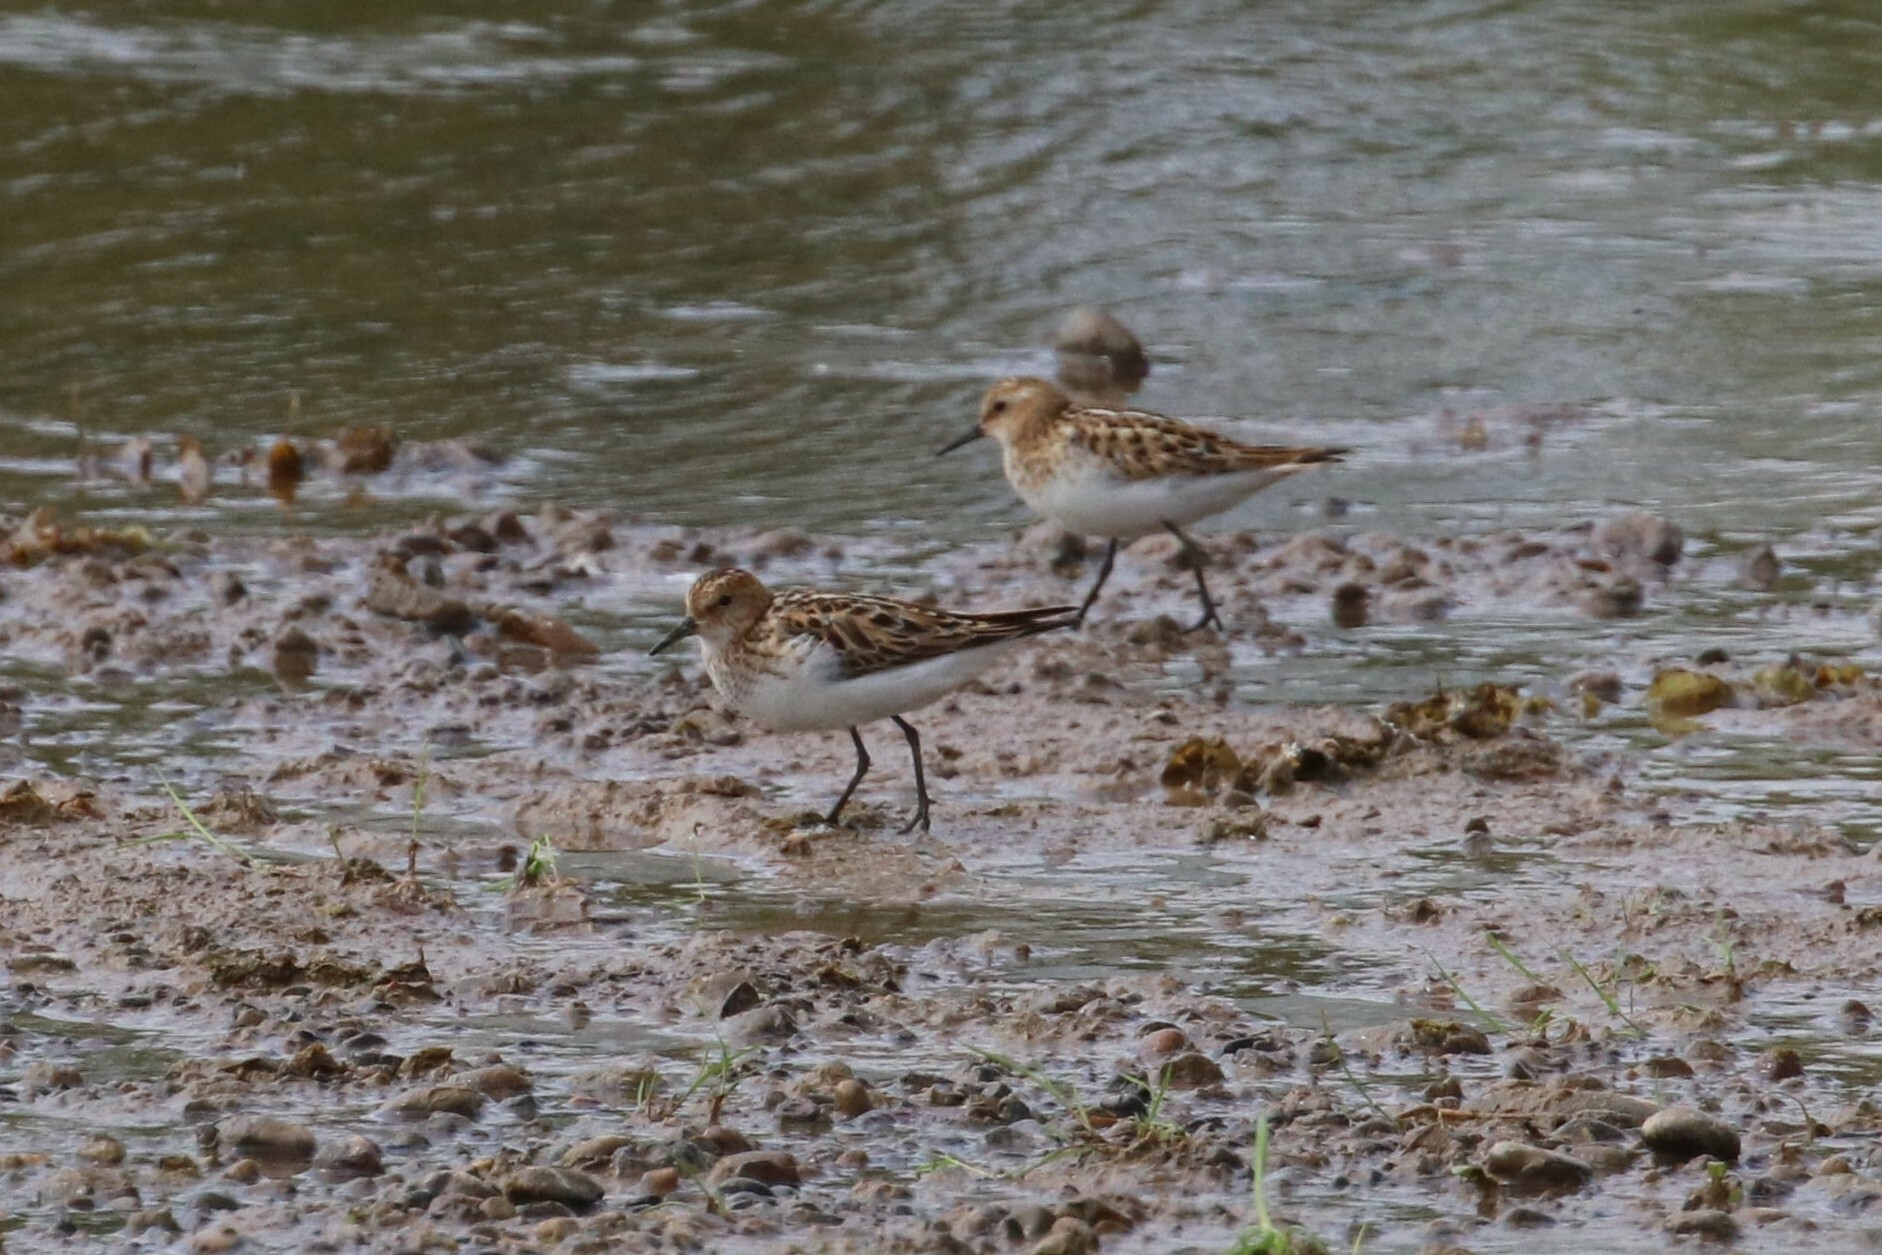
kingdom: Animalia
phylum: Chordata
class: Aves
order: Charadriiformes
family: Scolopacidae
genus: Calidris
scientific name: Calidris minuta
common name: Little stint
